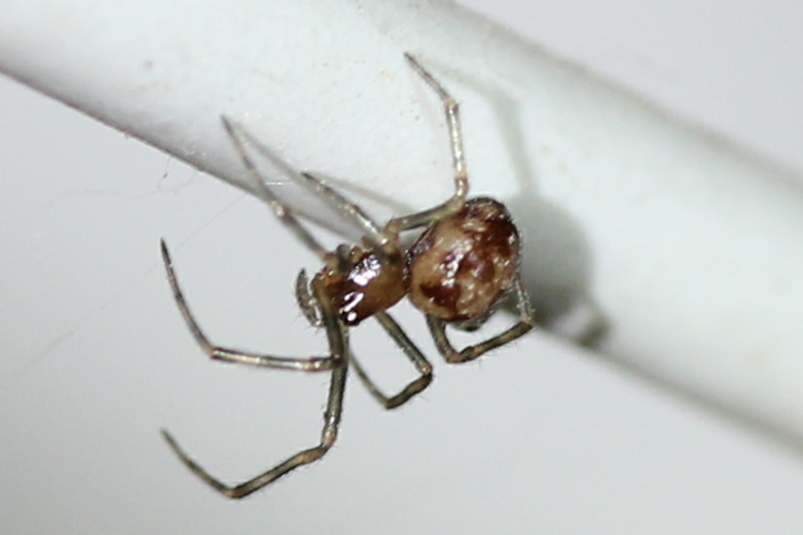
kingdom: Animalia
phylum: Arthropoda
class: Arachnida
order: Araneae
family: Theridiidae
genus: Steatoda
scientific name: Steatoda triangulosa
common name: Triangulate bud spider
